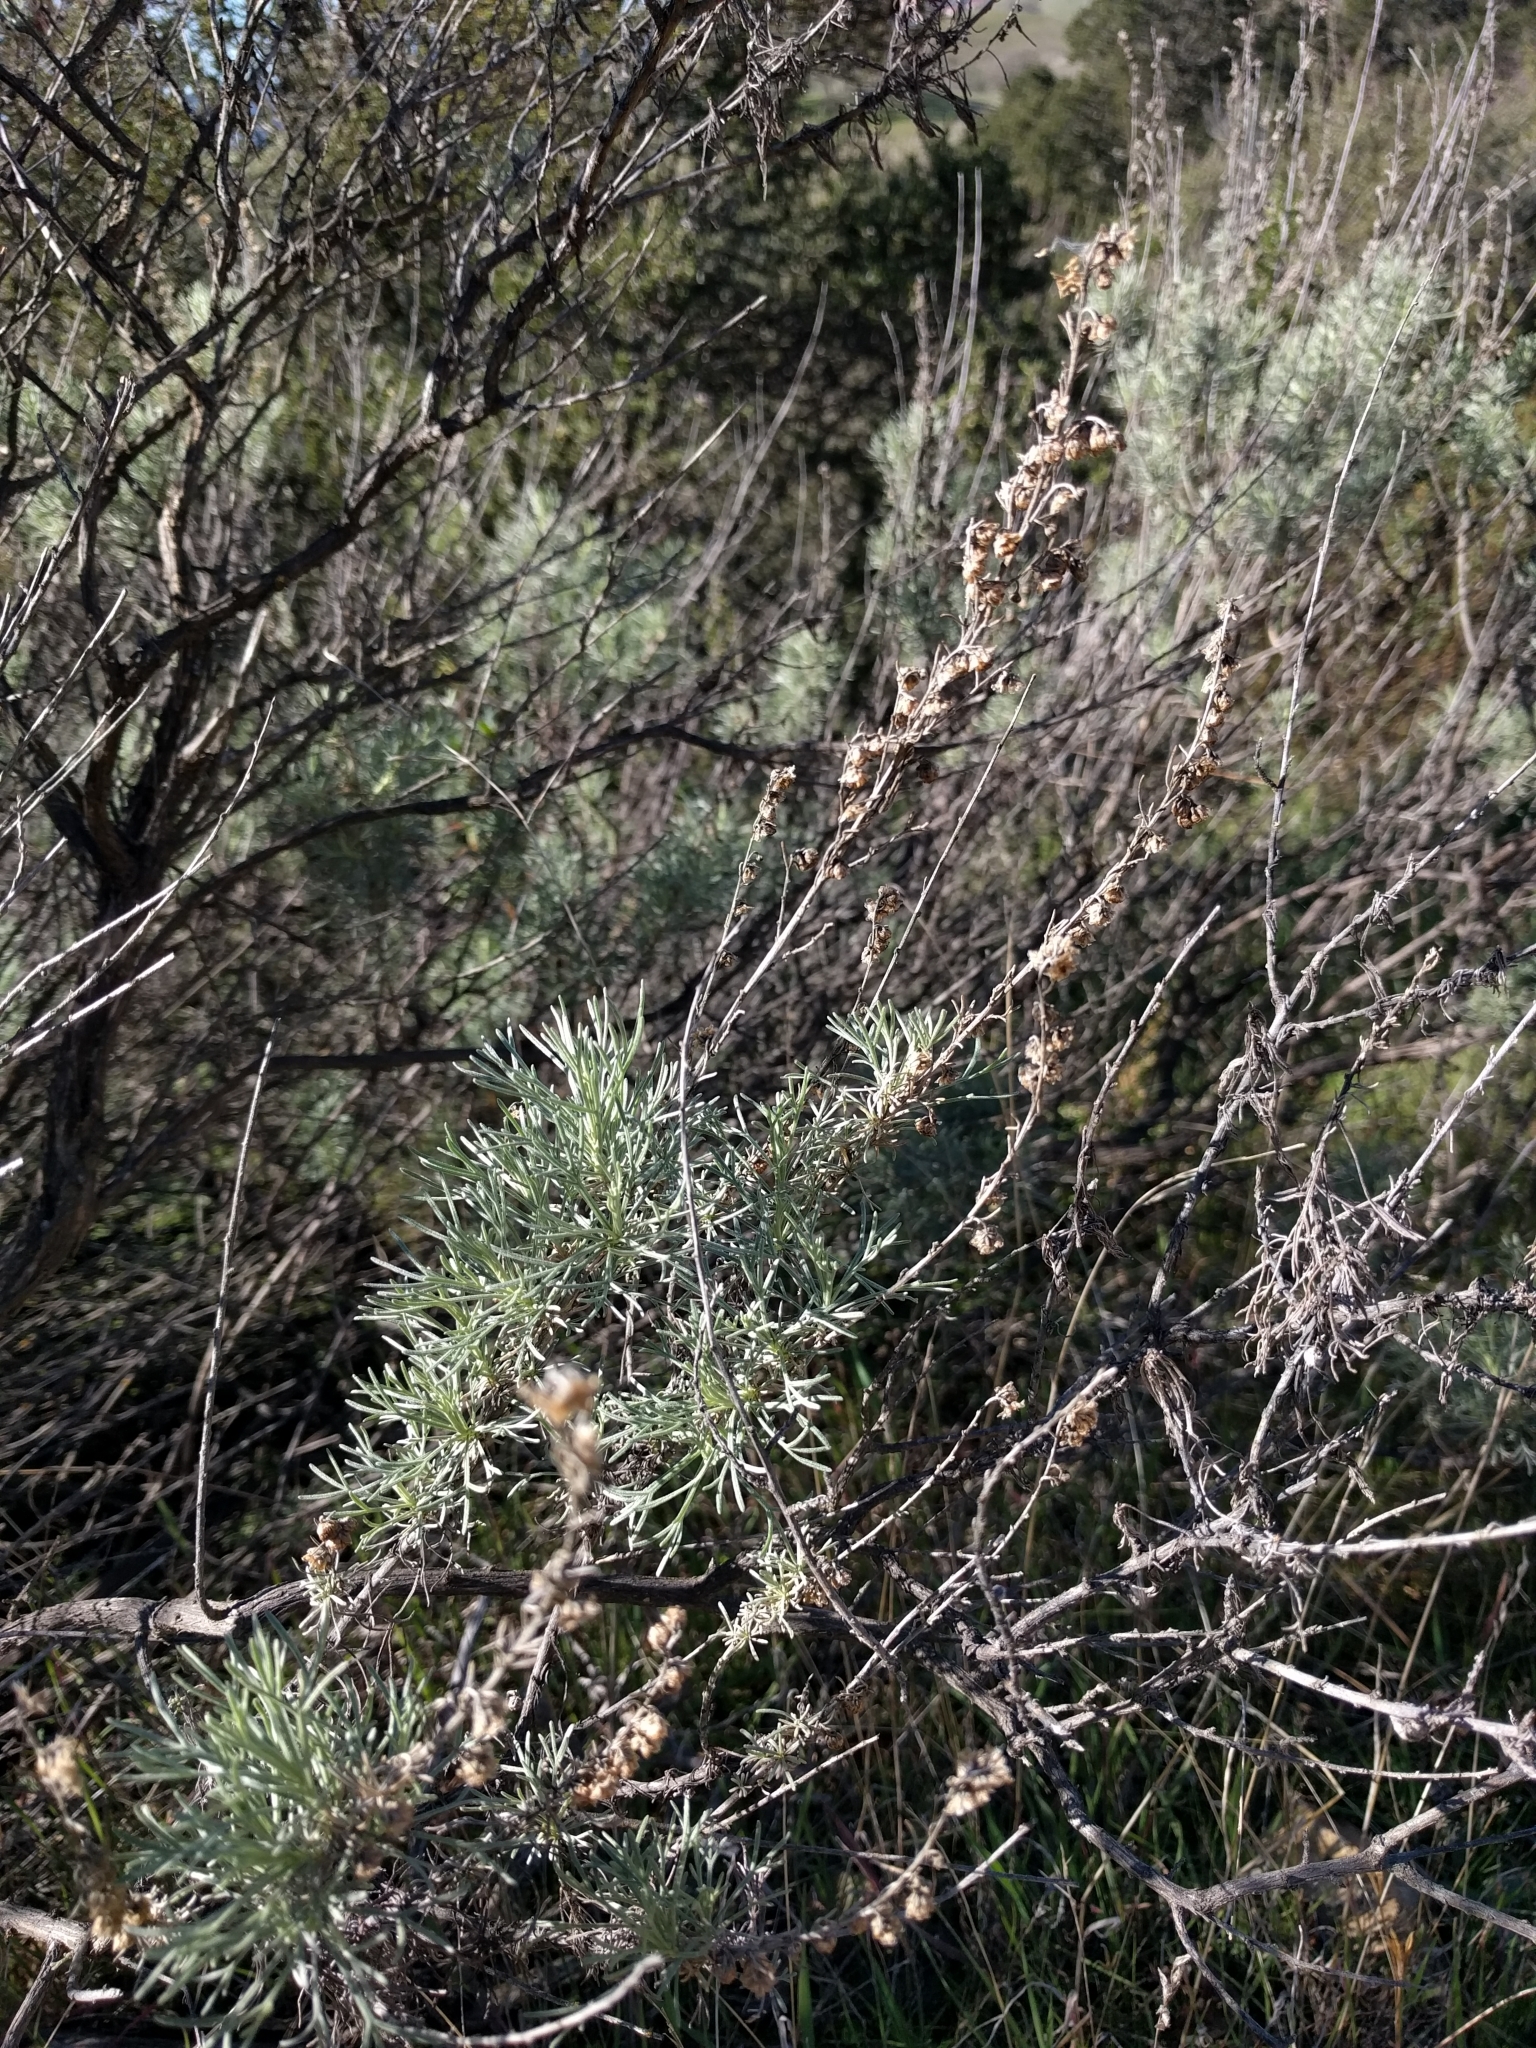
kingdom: Plantae
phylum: Tracheophyta
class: Magnoliopsida
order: Asterales
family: Asteraceae
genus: Artemisia
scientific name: Artemisia californica
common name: California sagebrush
